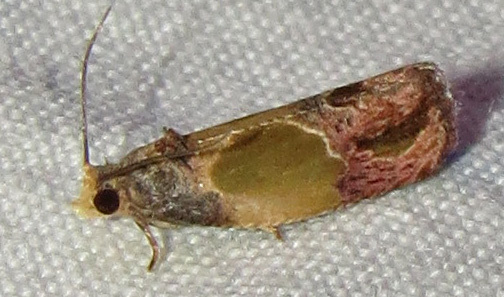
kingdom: Animalia
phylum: Arthropoda
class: Insecta
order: Lepidoptera
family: Tortricidae
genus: Eumarozia
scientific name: Eumarozia malachitana
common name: Sculptured moth
